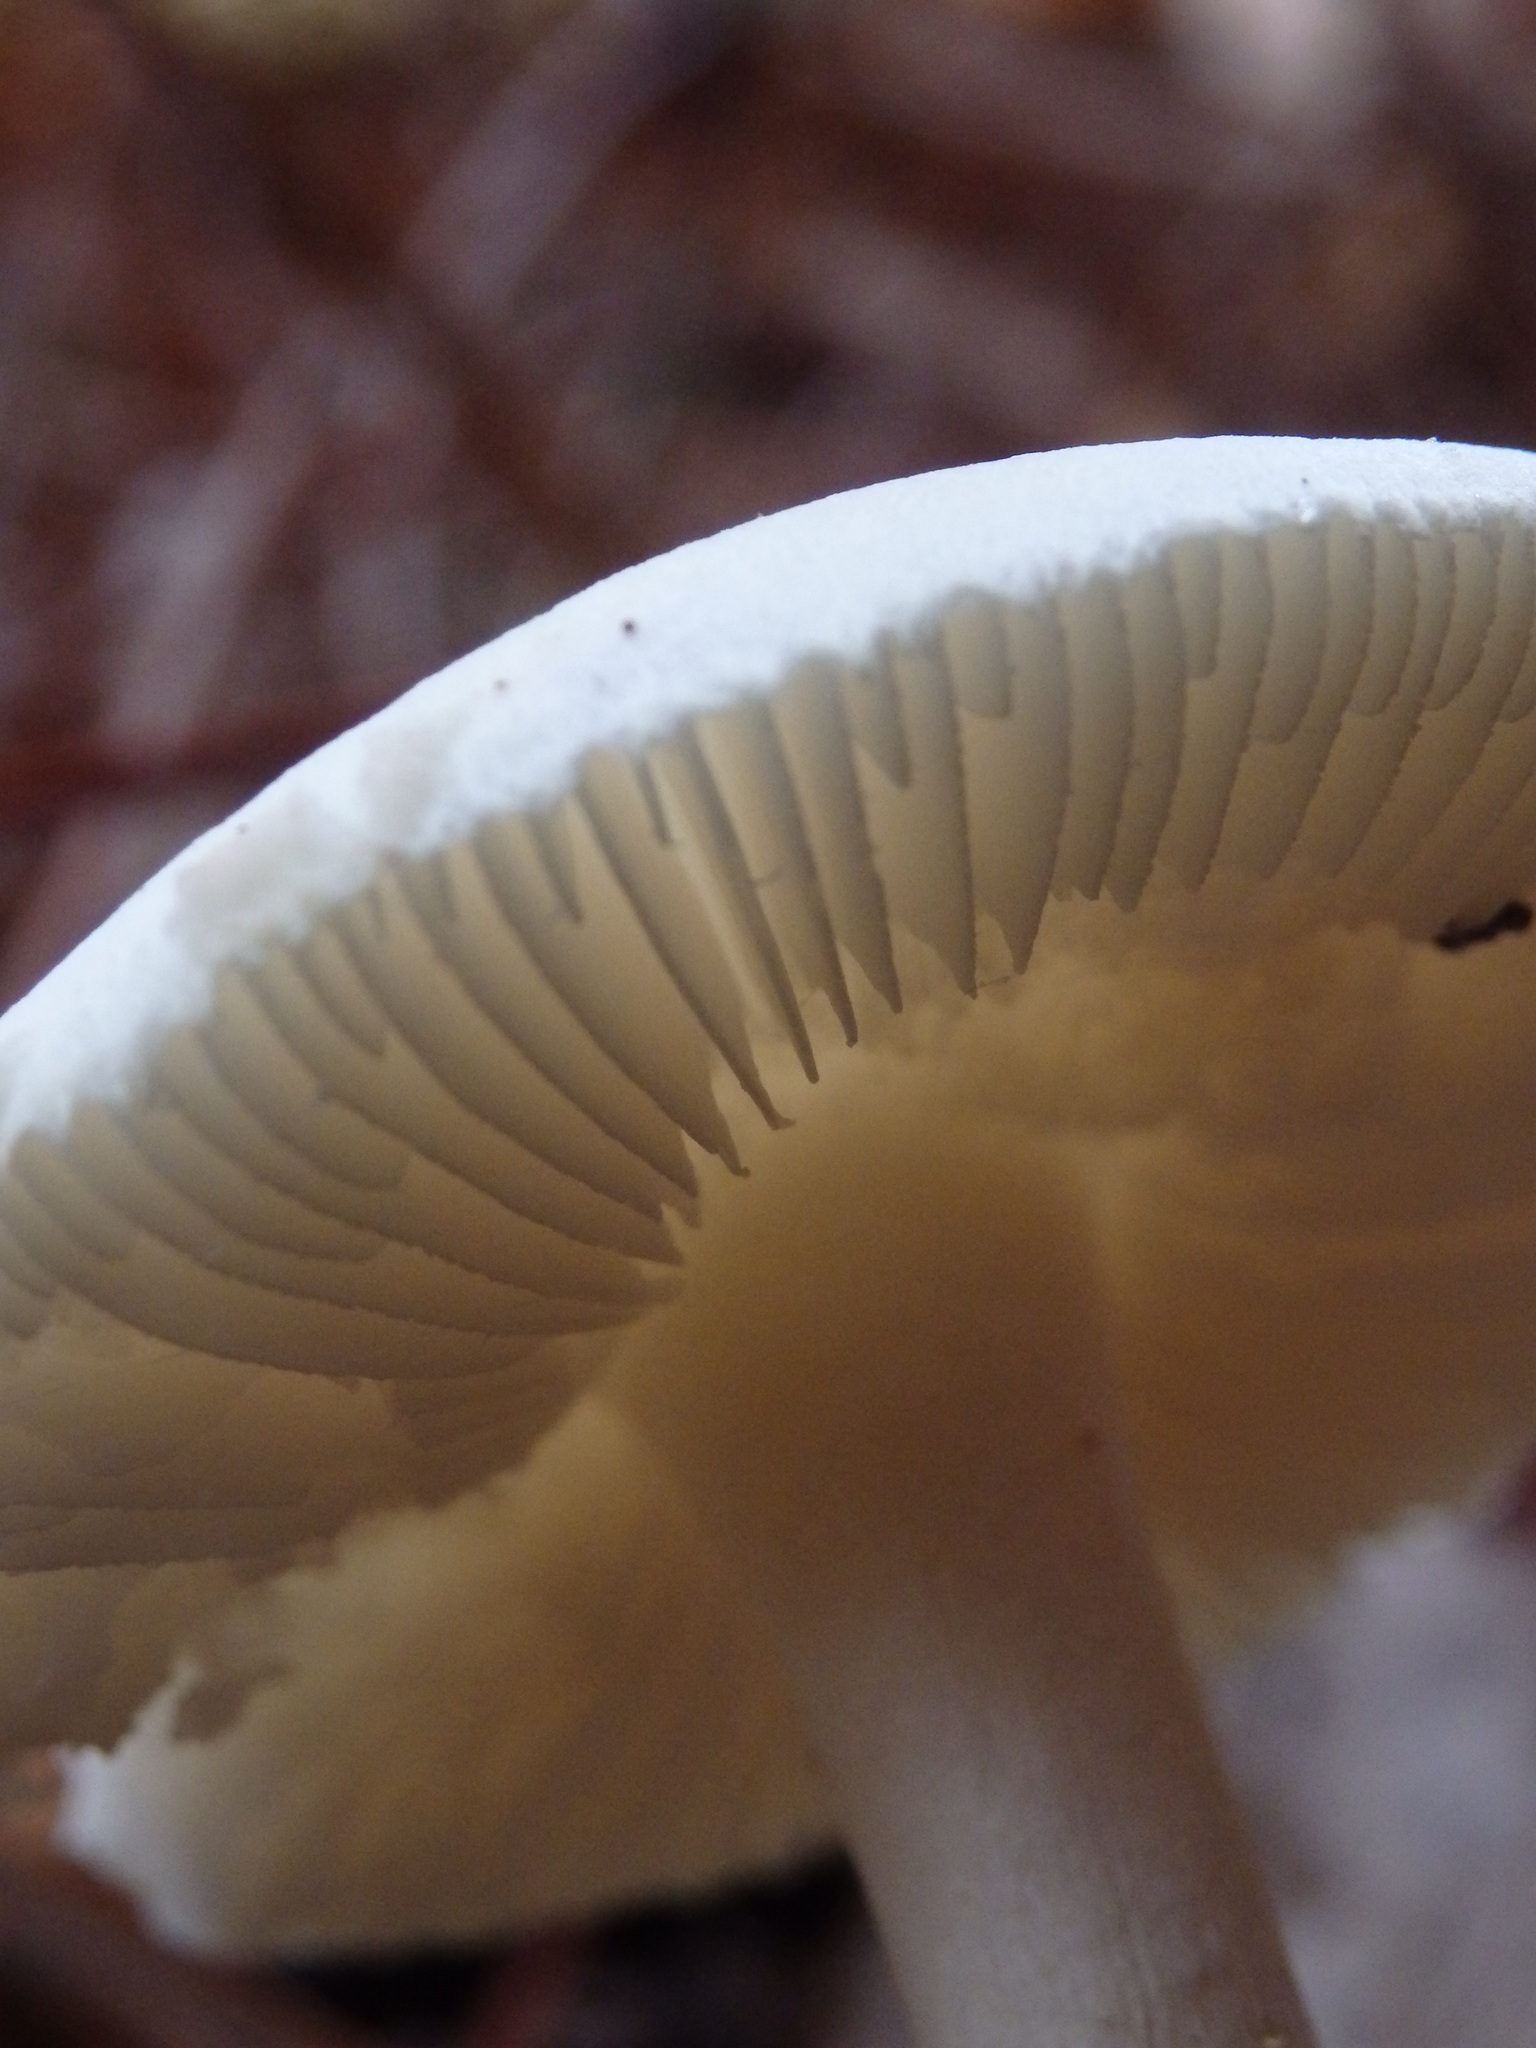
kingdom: Fungi
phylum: Basidiomycota
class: Agaricomycetes
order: Agaricales
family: Amanitaceae
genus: Amanita
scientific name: Amanita citrina
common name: False death-cap
